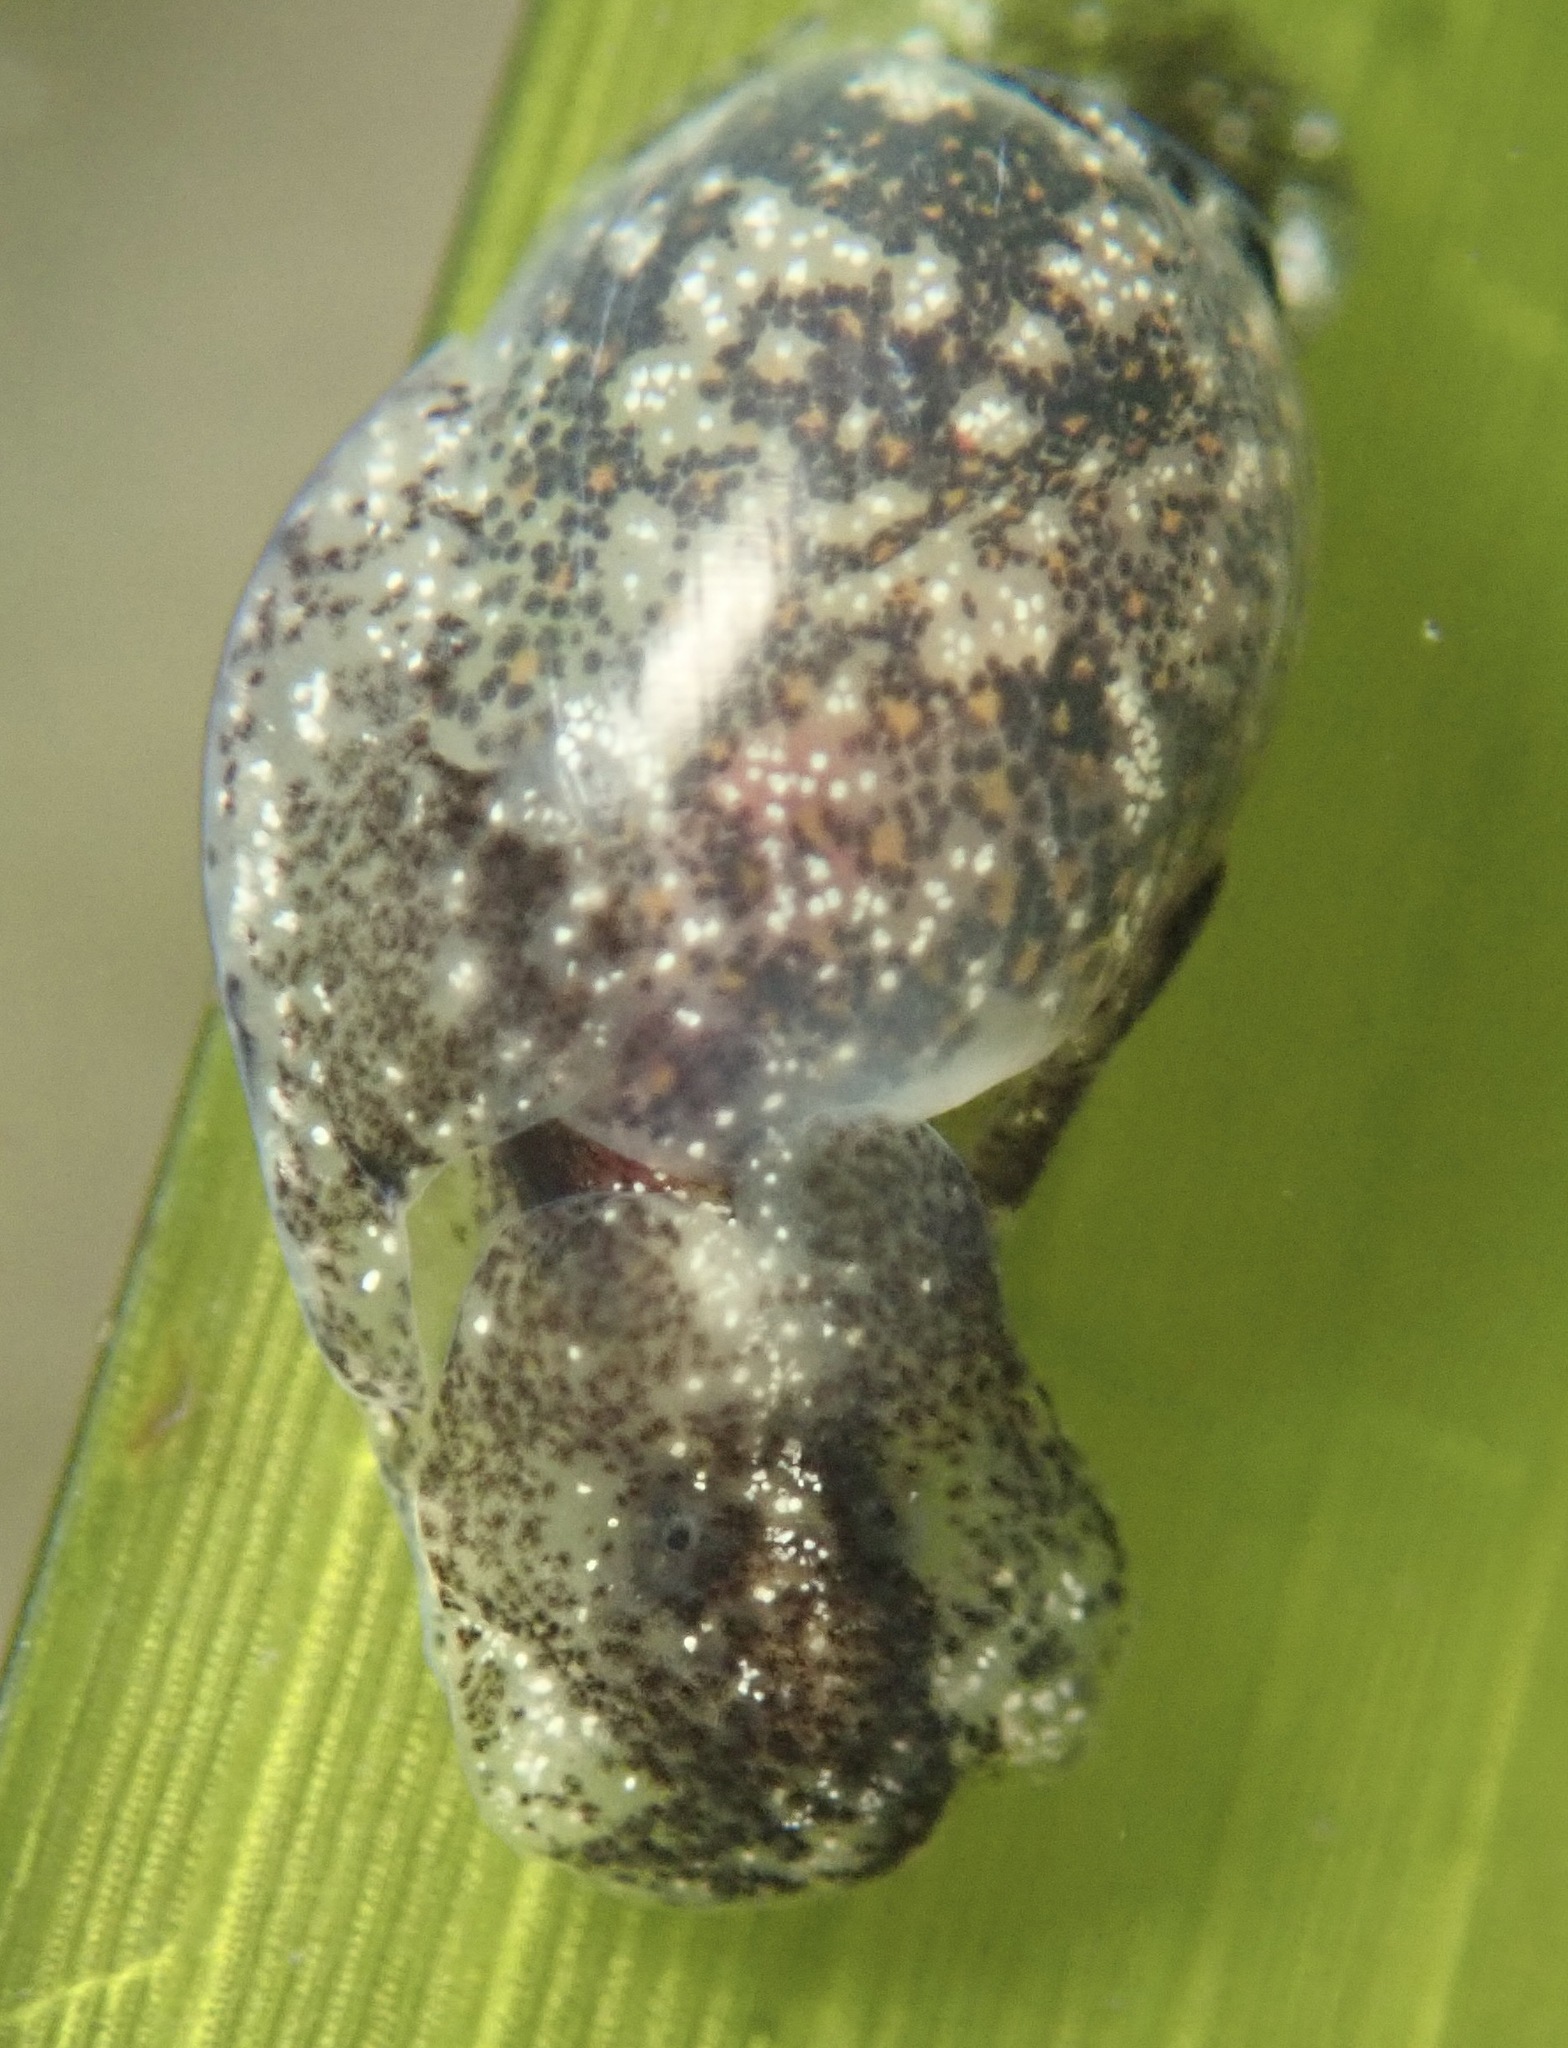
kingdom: Animalia
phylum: Mollusca
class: Gastropoda
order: Cephalaspidea
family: Haminoeidae
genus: Haminoea
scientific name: Haminoea vesicula
